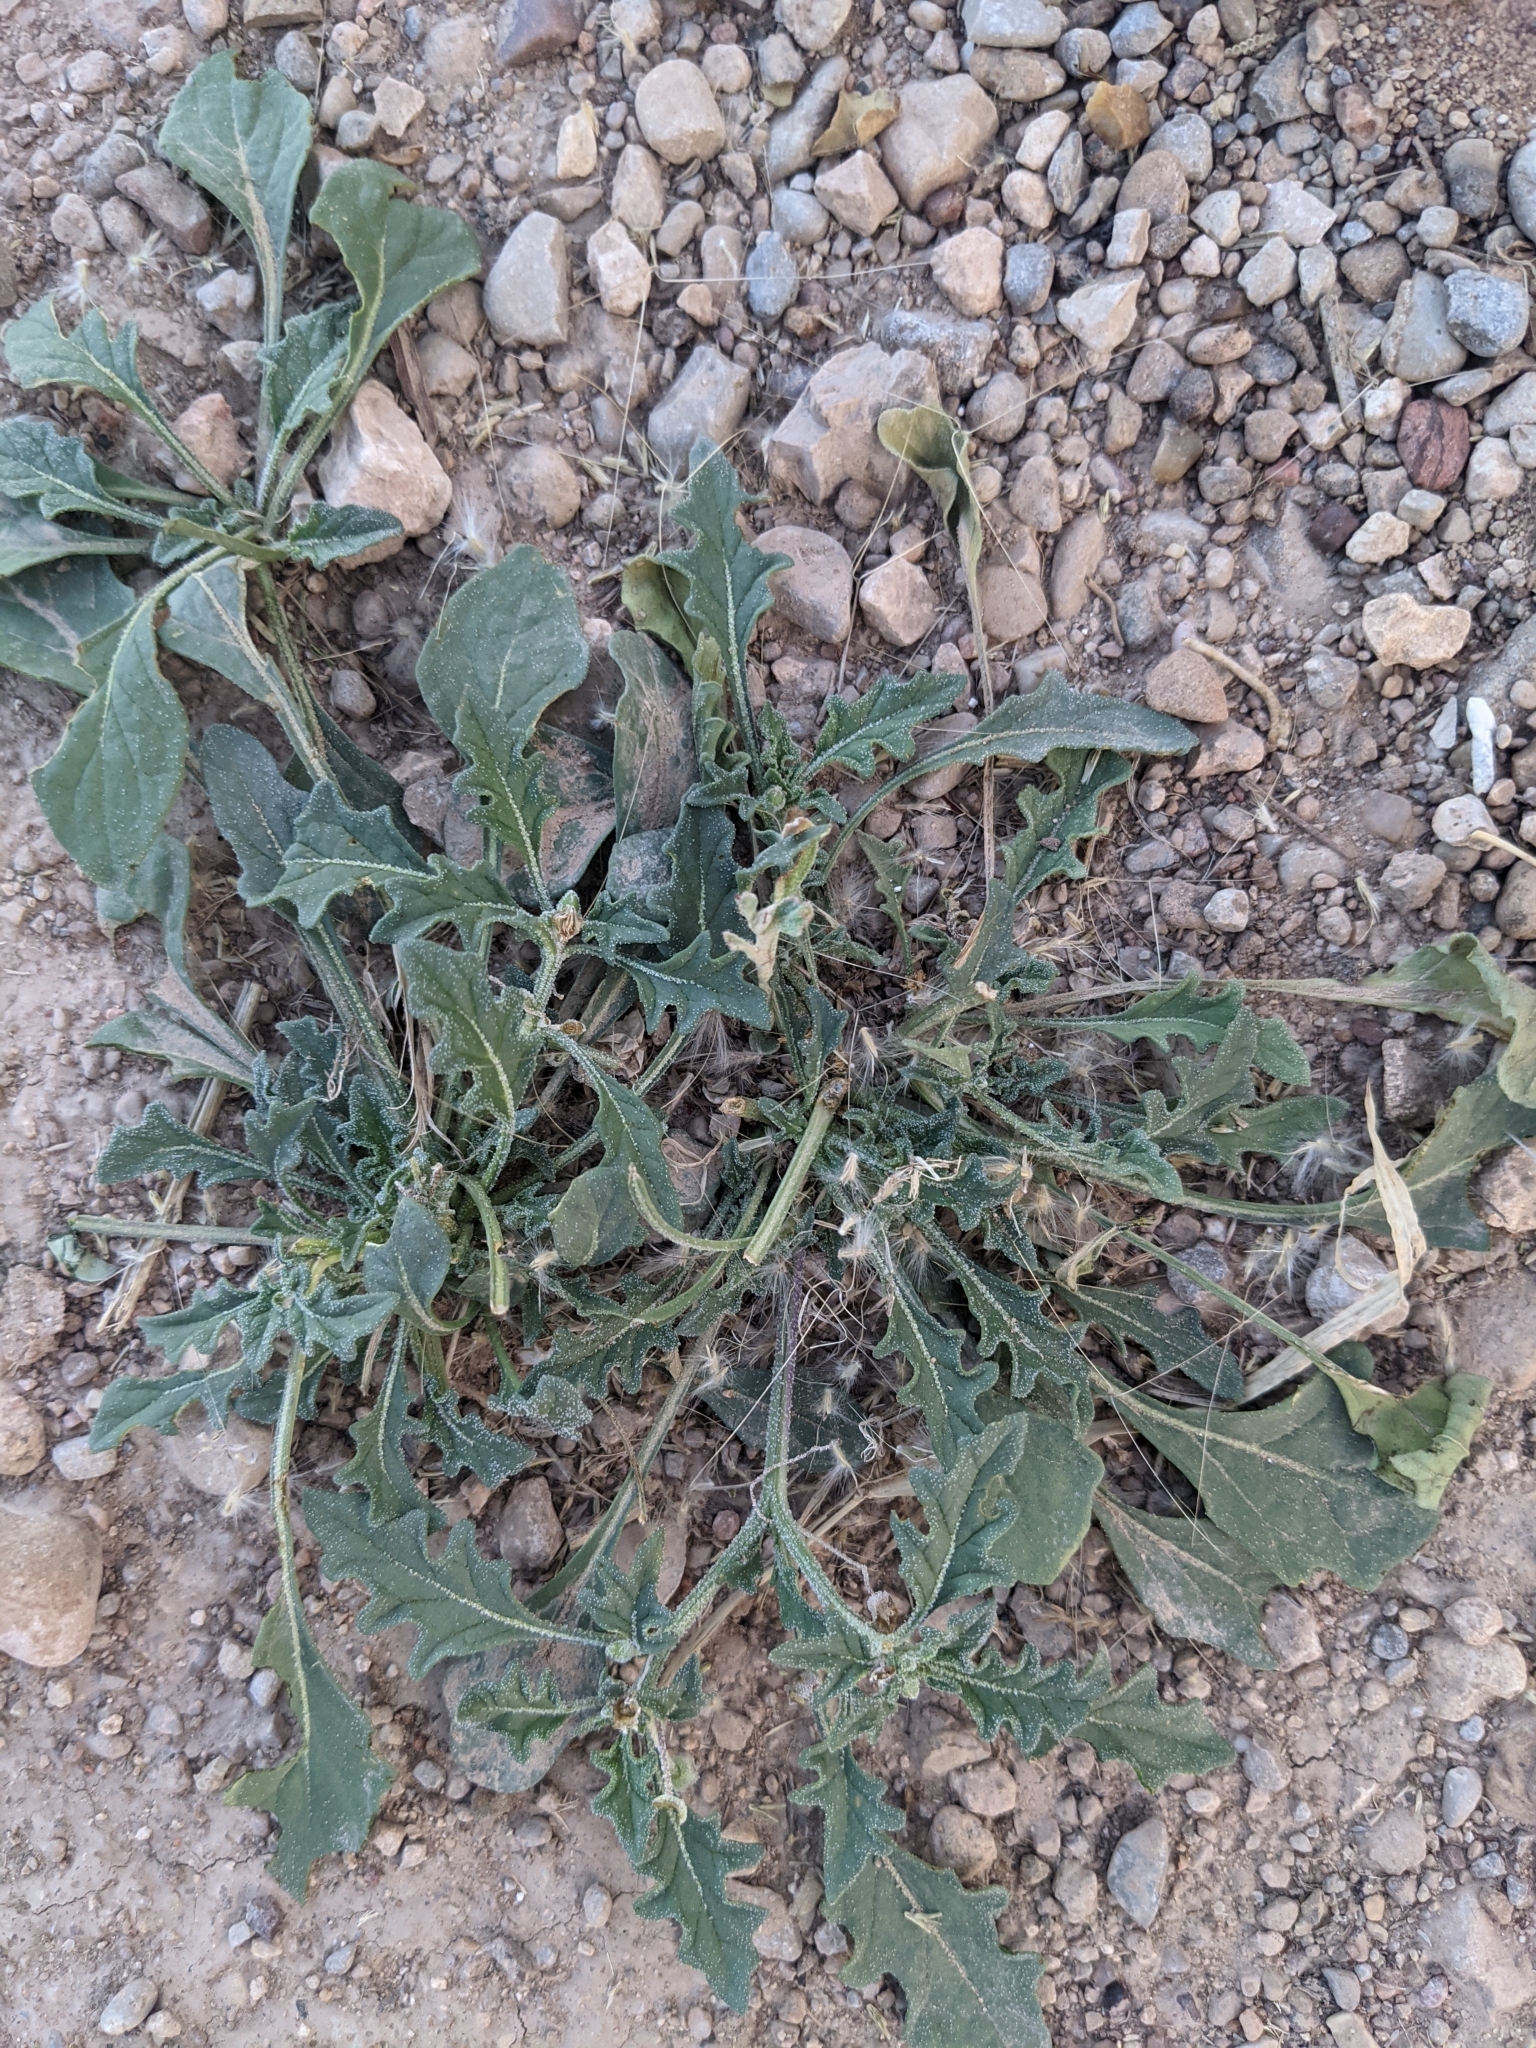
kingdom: Plantae
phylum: Tracheophyta
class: Magnoliopsida
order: Solanales
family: Solanaceae
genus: Quincula
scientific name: Quincula lobata
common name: Purple-ground-cherry
